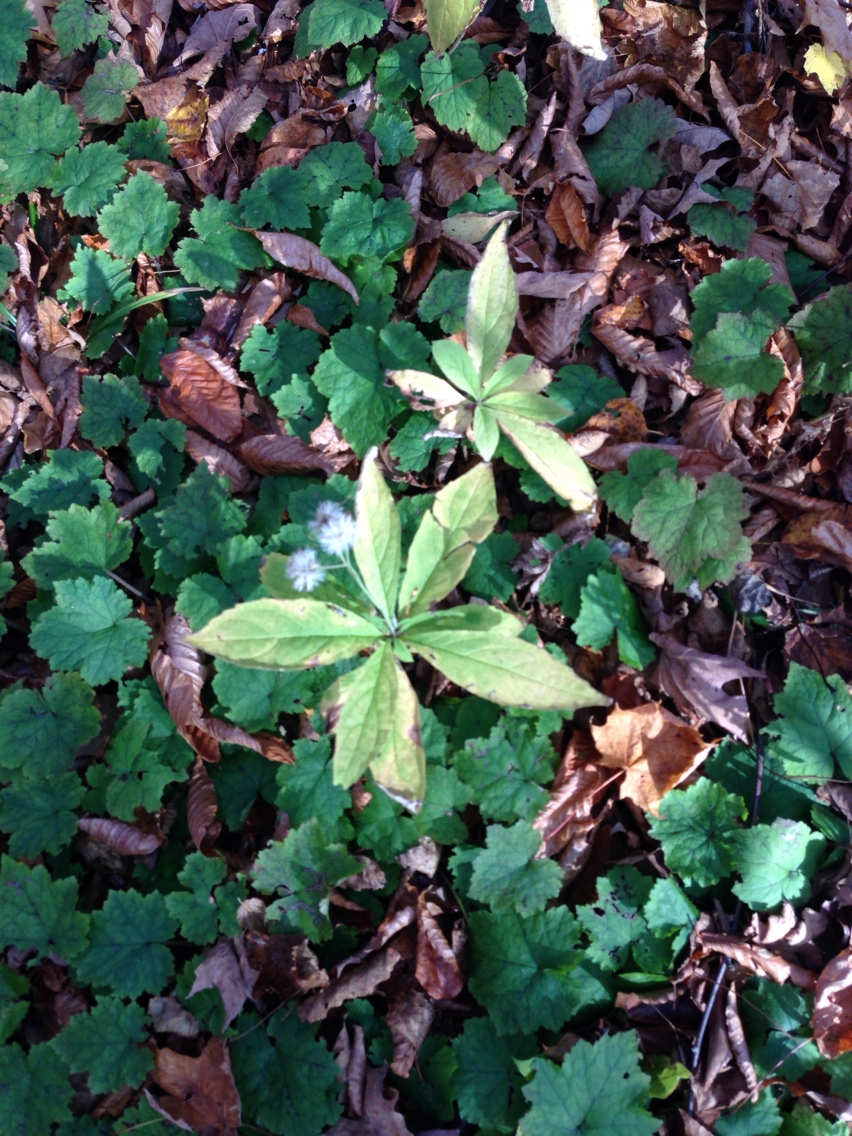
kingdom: Plantae
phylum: Tracheophyta
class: Magnoliopsida
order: Asterales
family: Asteraceae
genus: Oclemena
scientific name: Oclemena acuminata
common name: Mountain aster
